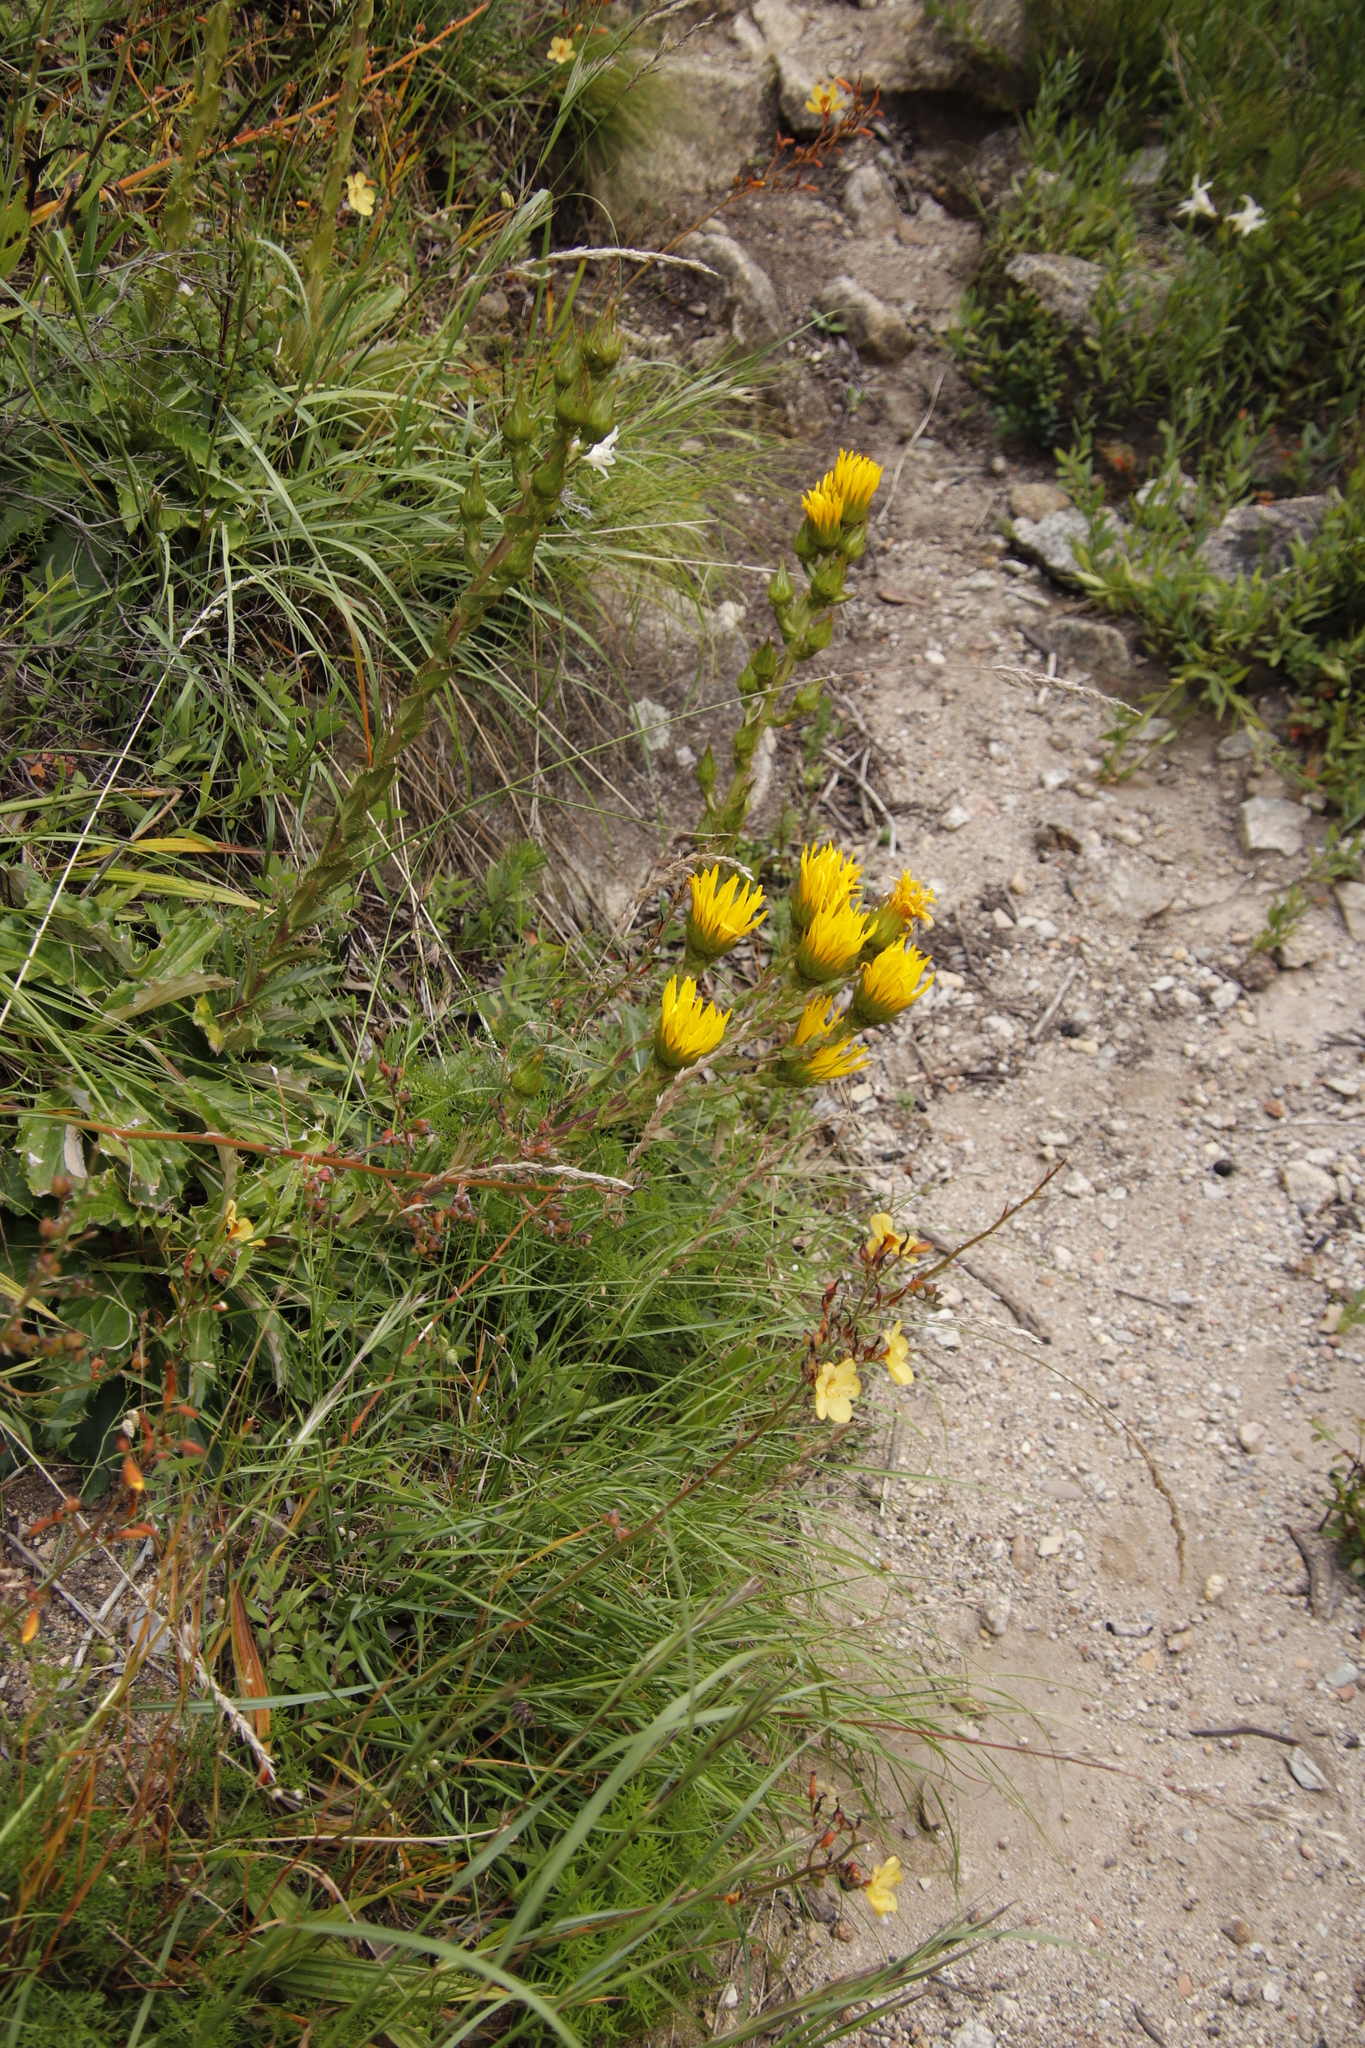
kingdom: Plantae
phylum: Tracheophyta
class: Magnoliopsida
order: Asterales
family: Asteraceae
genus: Berkheya
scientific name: Berkheya armata
